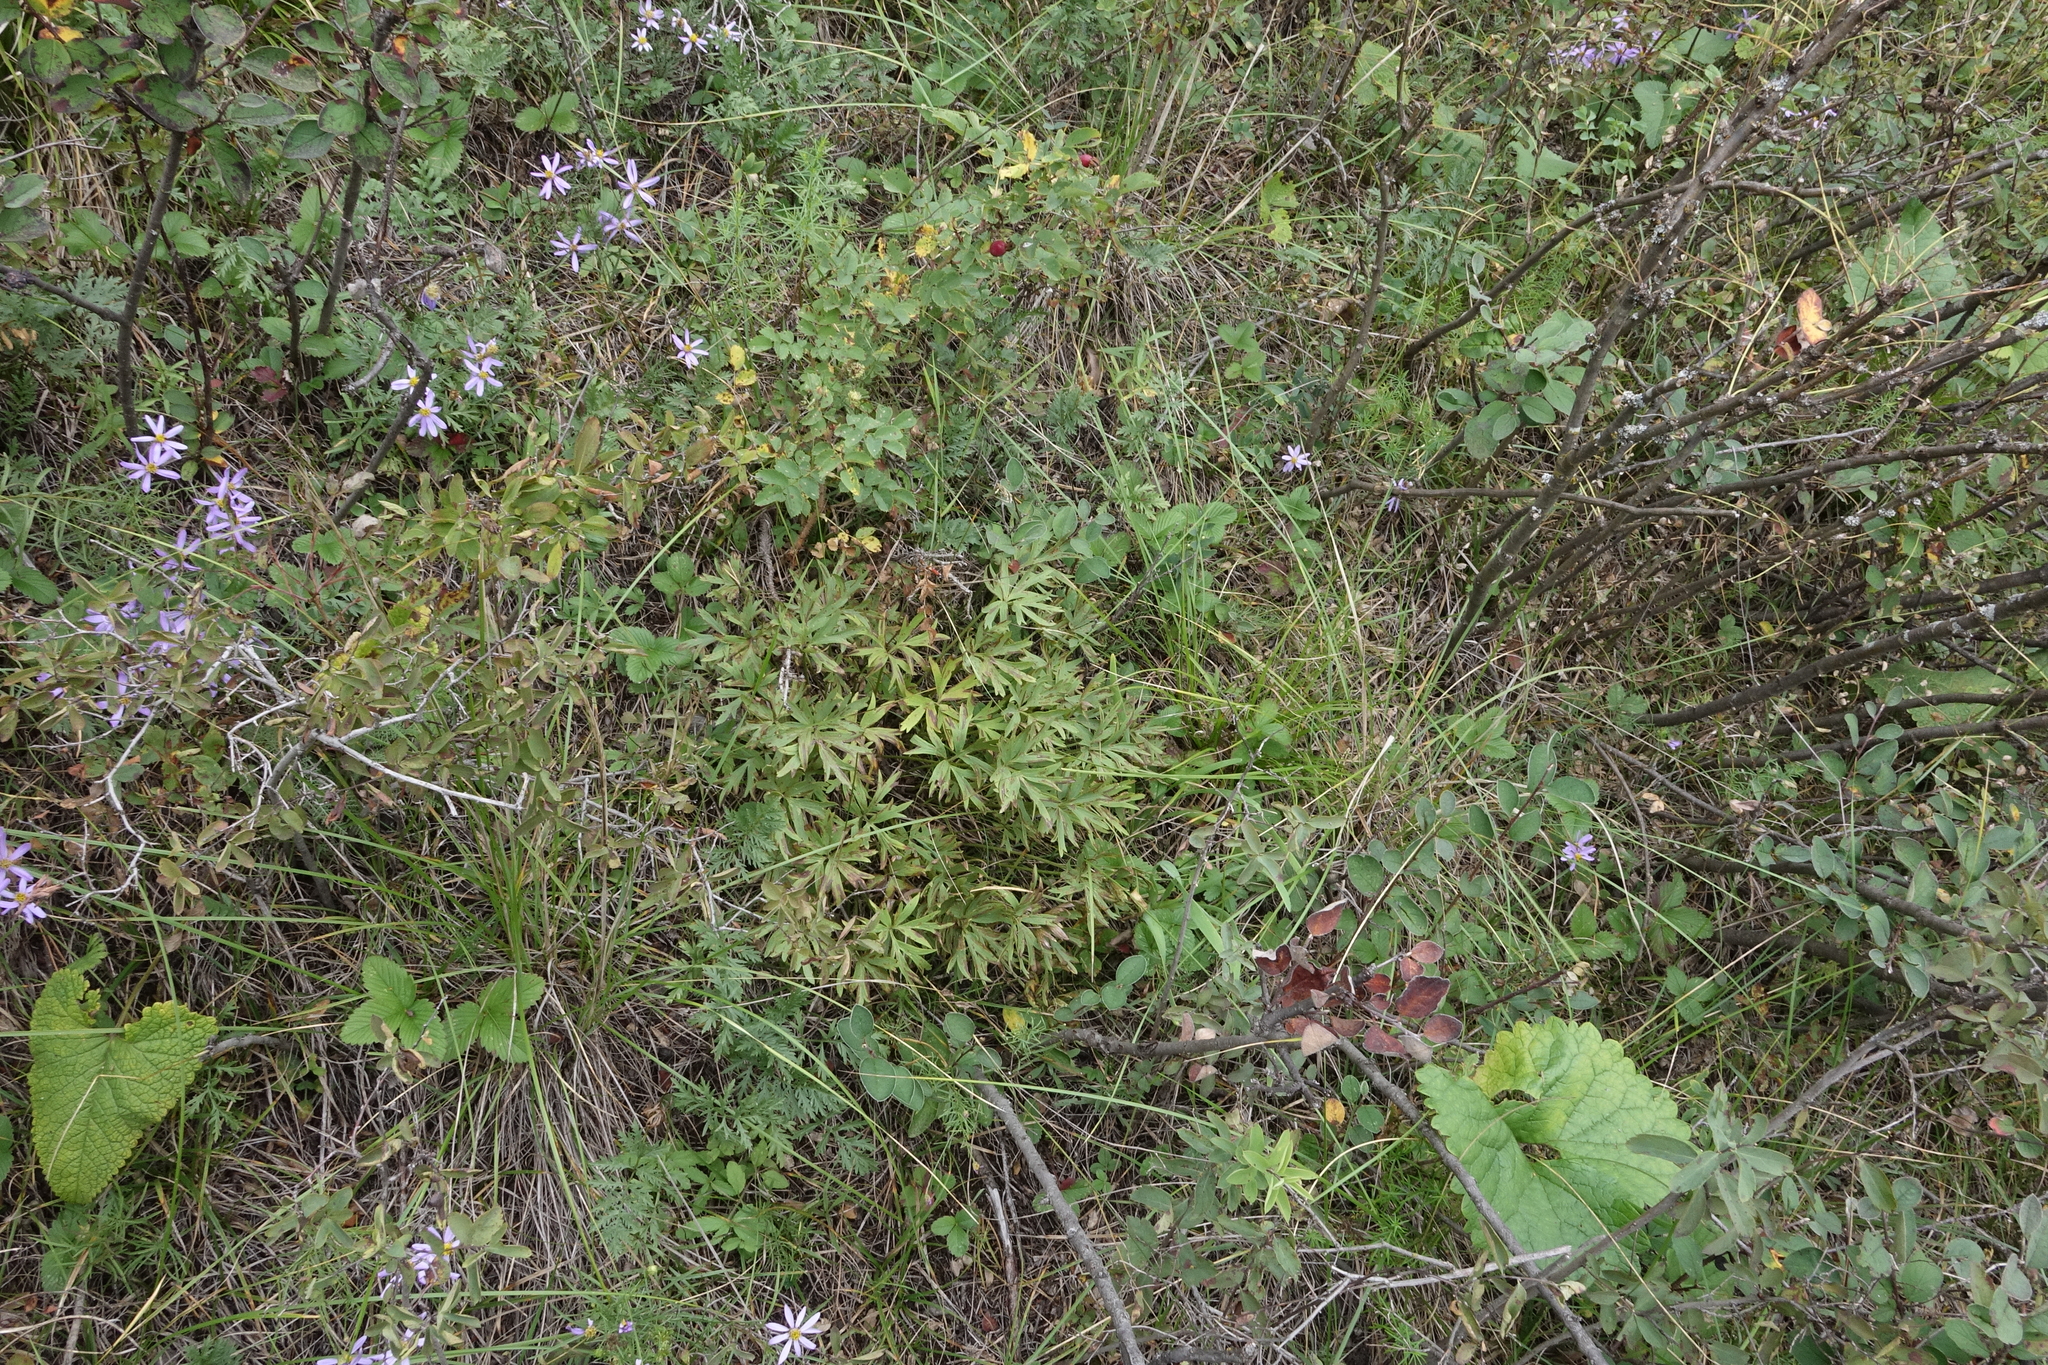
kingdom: Plantae
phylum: Tracheophyta
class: Magnoliopsida
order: Ranunculales
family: Ranunculaceae
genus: Pulsatilla
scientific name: Pulsatilla patens
